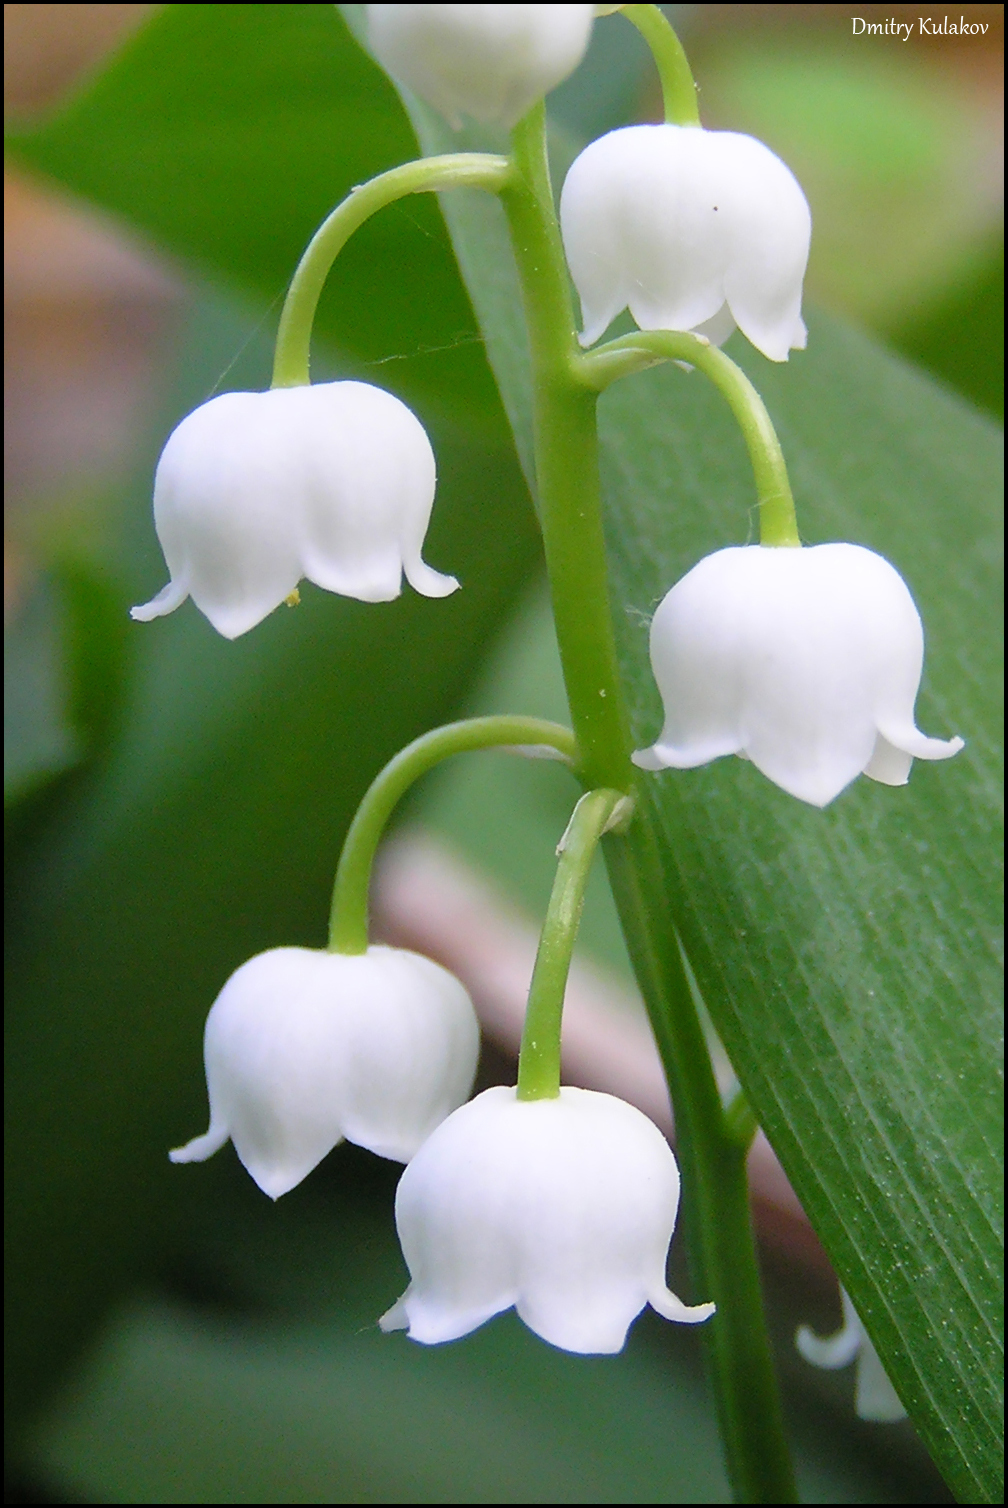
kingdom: Plantae
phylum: Tracheophyta
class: Liliopsida
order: Asparagales
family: Asparagaceae
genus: Convallaria
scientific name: Convallaria majalis
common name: Lily-of-the-valley
